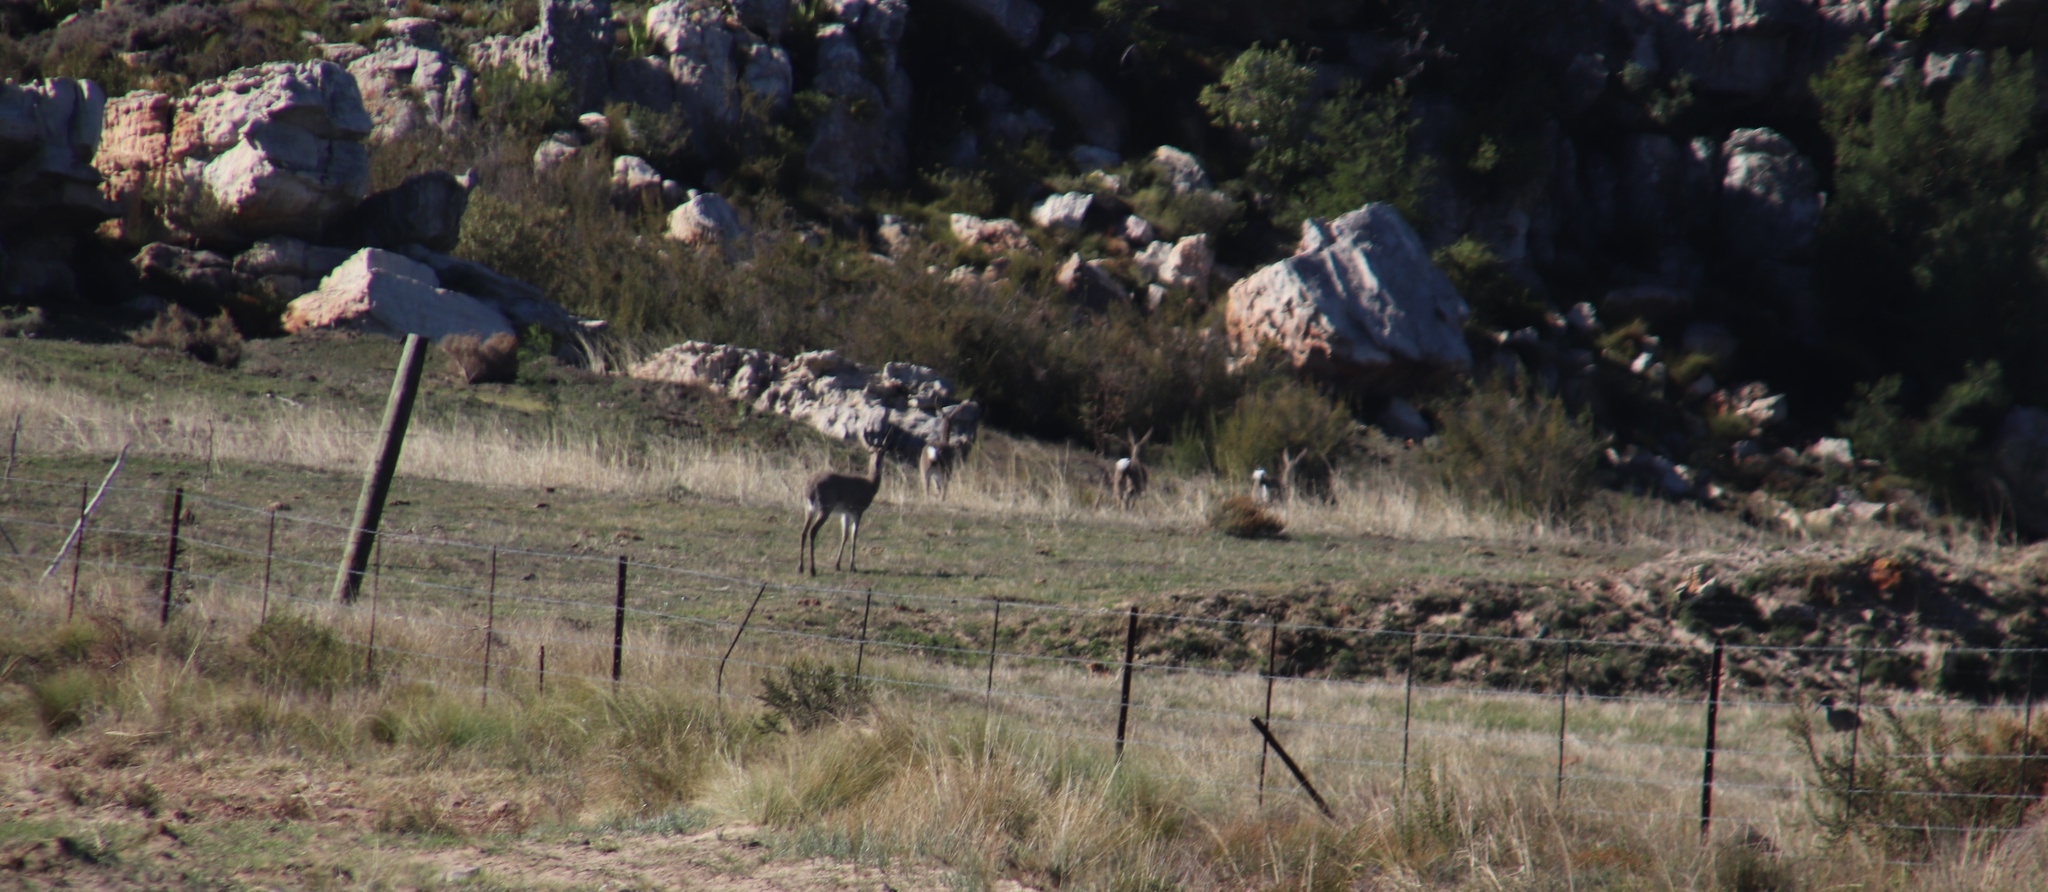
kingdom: Animalia
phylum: Chordata
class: Mammalia
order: Artiodactyla
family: Bovidae
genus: Pelea
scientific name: Pelea capreolus
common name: Common rhebok
